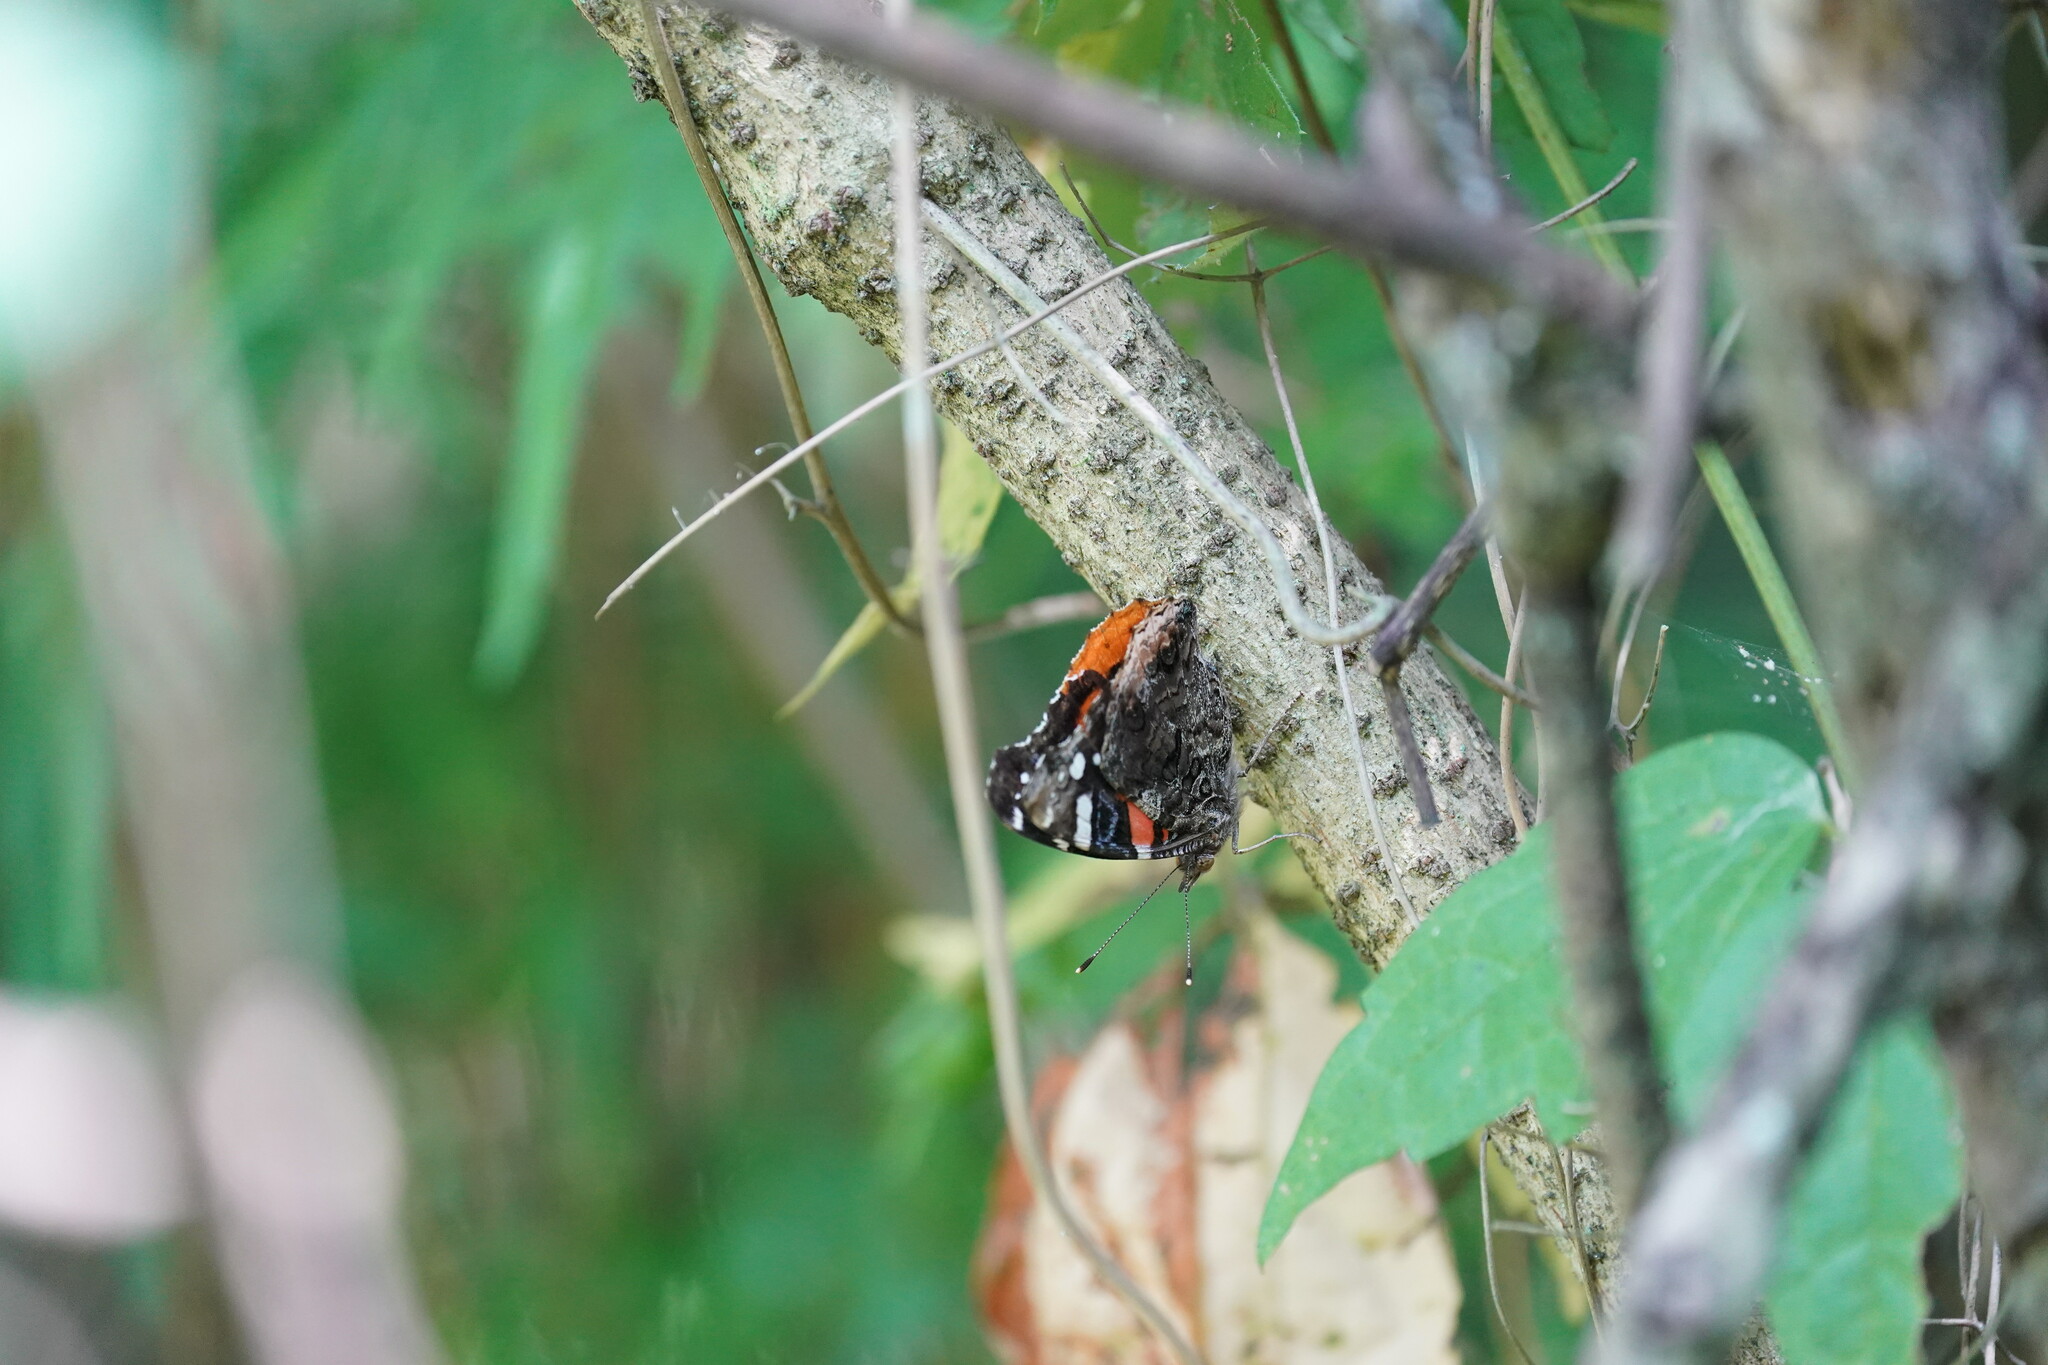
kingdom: Animalia
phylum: Arthropoda
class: Insecta
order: Lepidoptera
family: Nymphalidae
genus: Vanessa
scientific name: Vanessa atalanta
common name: Red admiral
